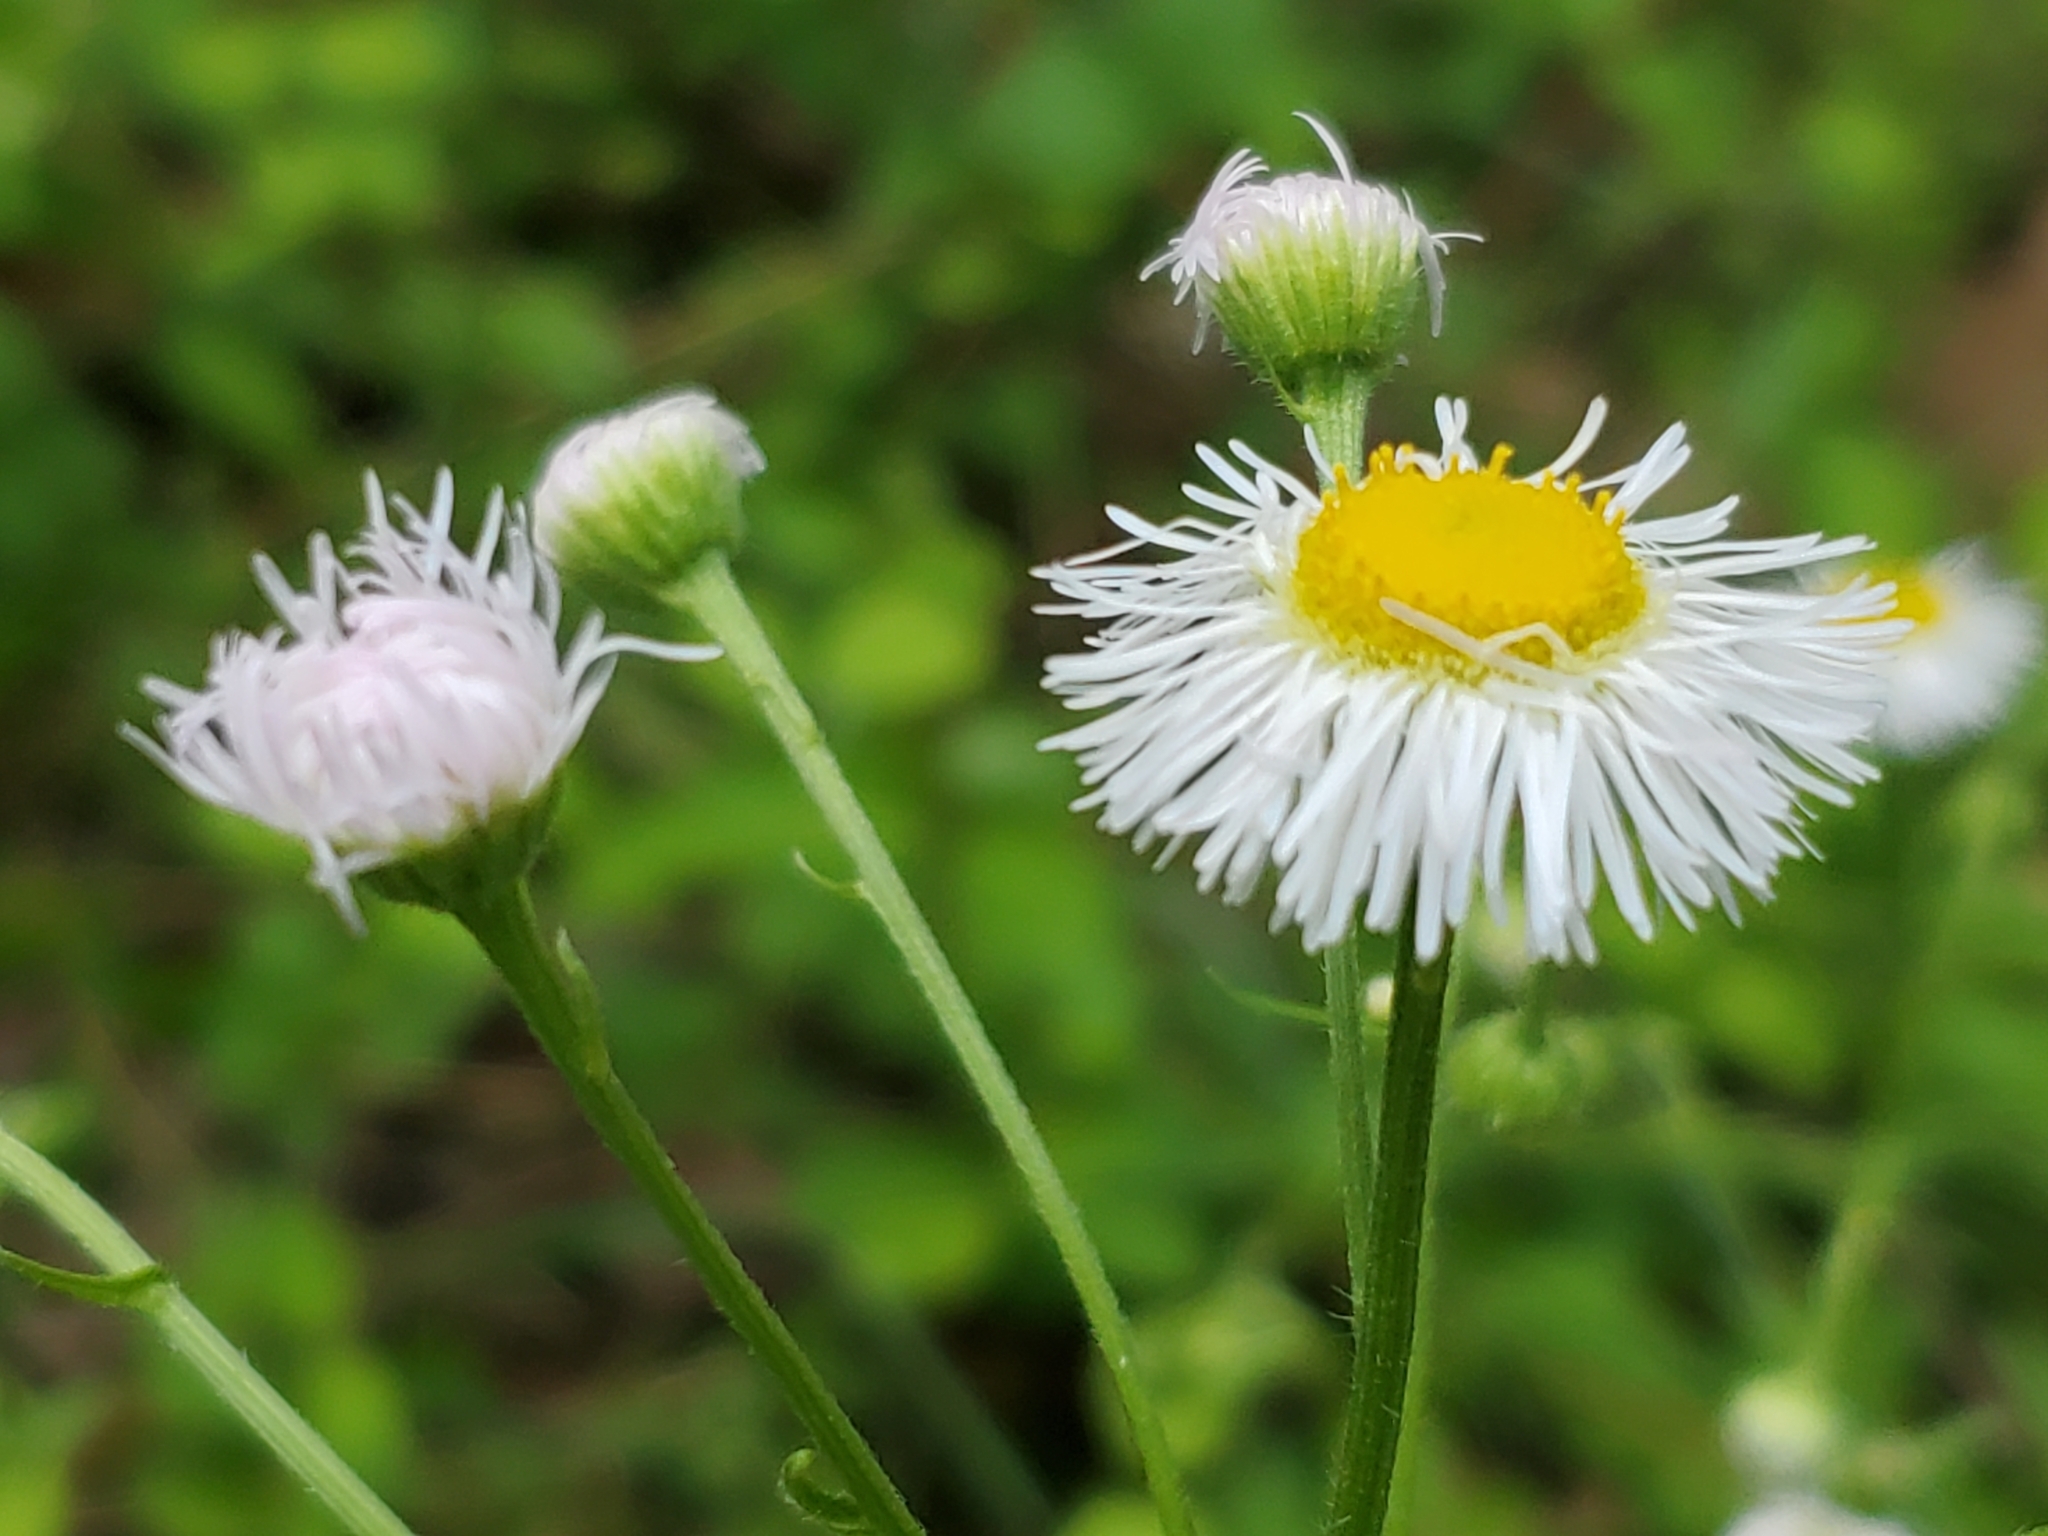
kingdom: Plantae
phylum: Tracheophyta
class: Magnoliopsida
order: Asterales
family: Asteraceae
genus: Erigeron
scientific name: Erigeron philadelphicus
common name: Robin's-plantain
